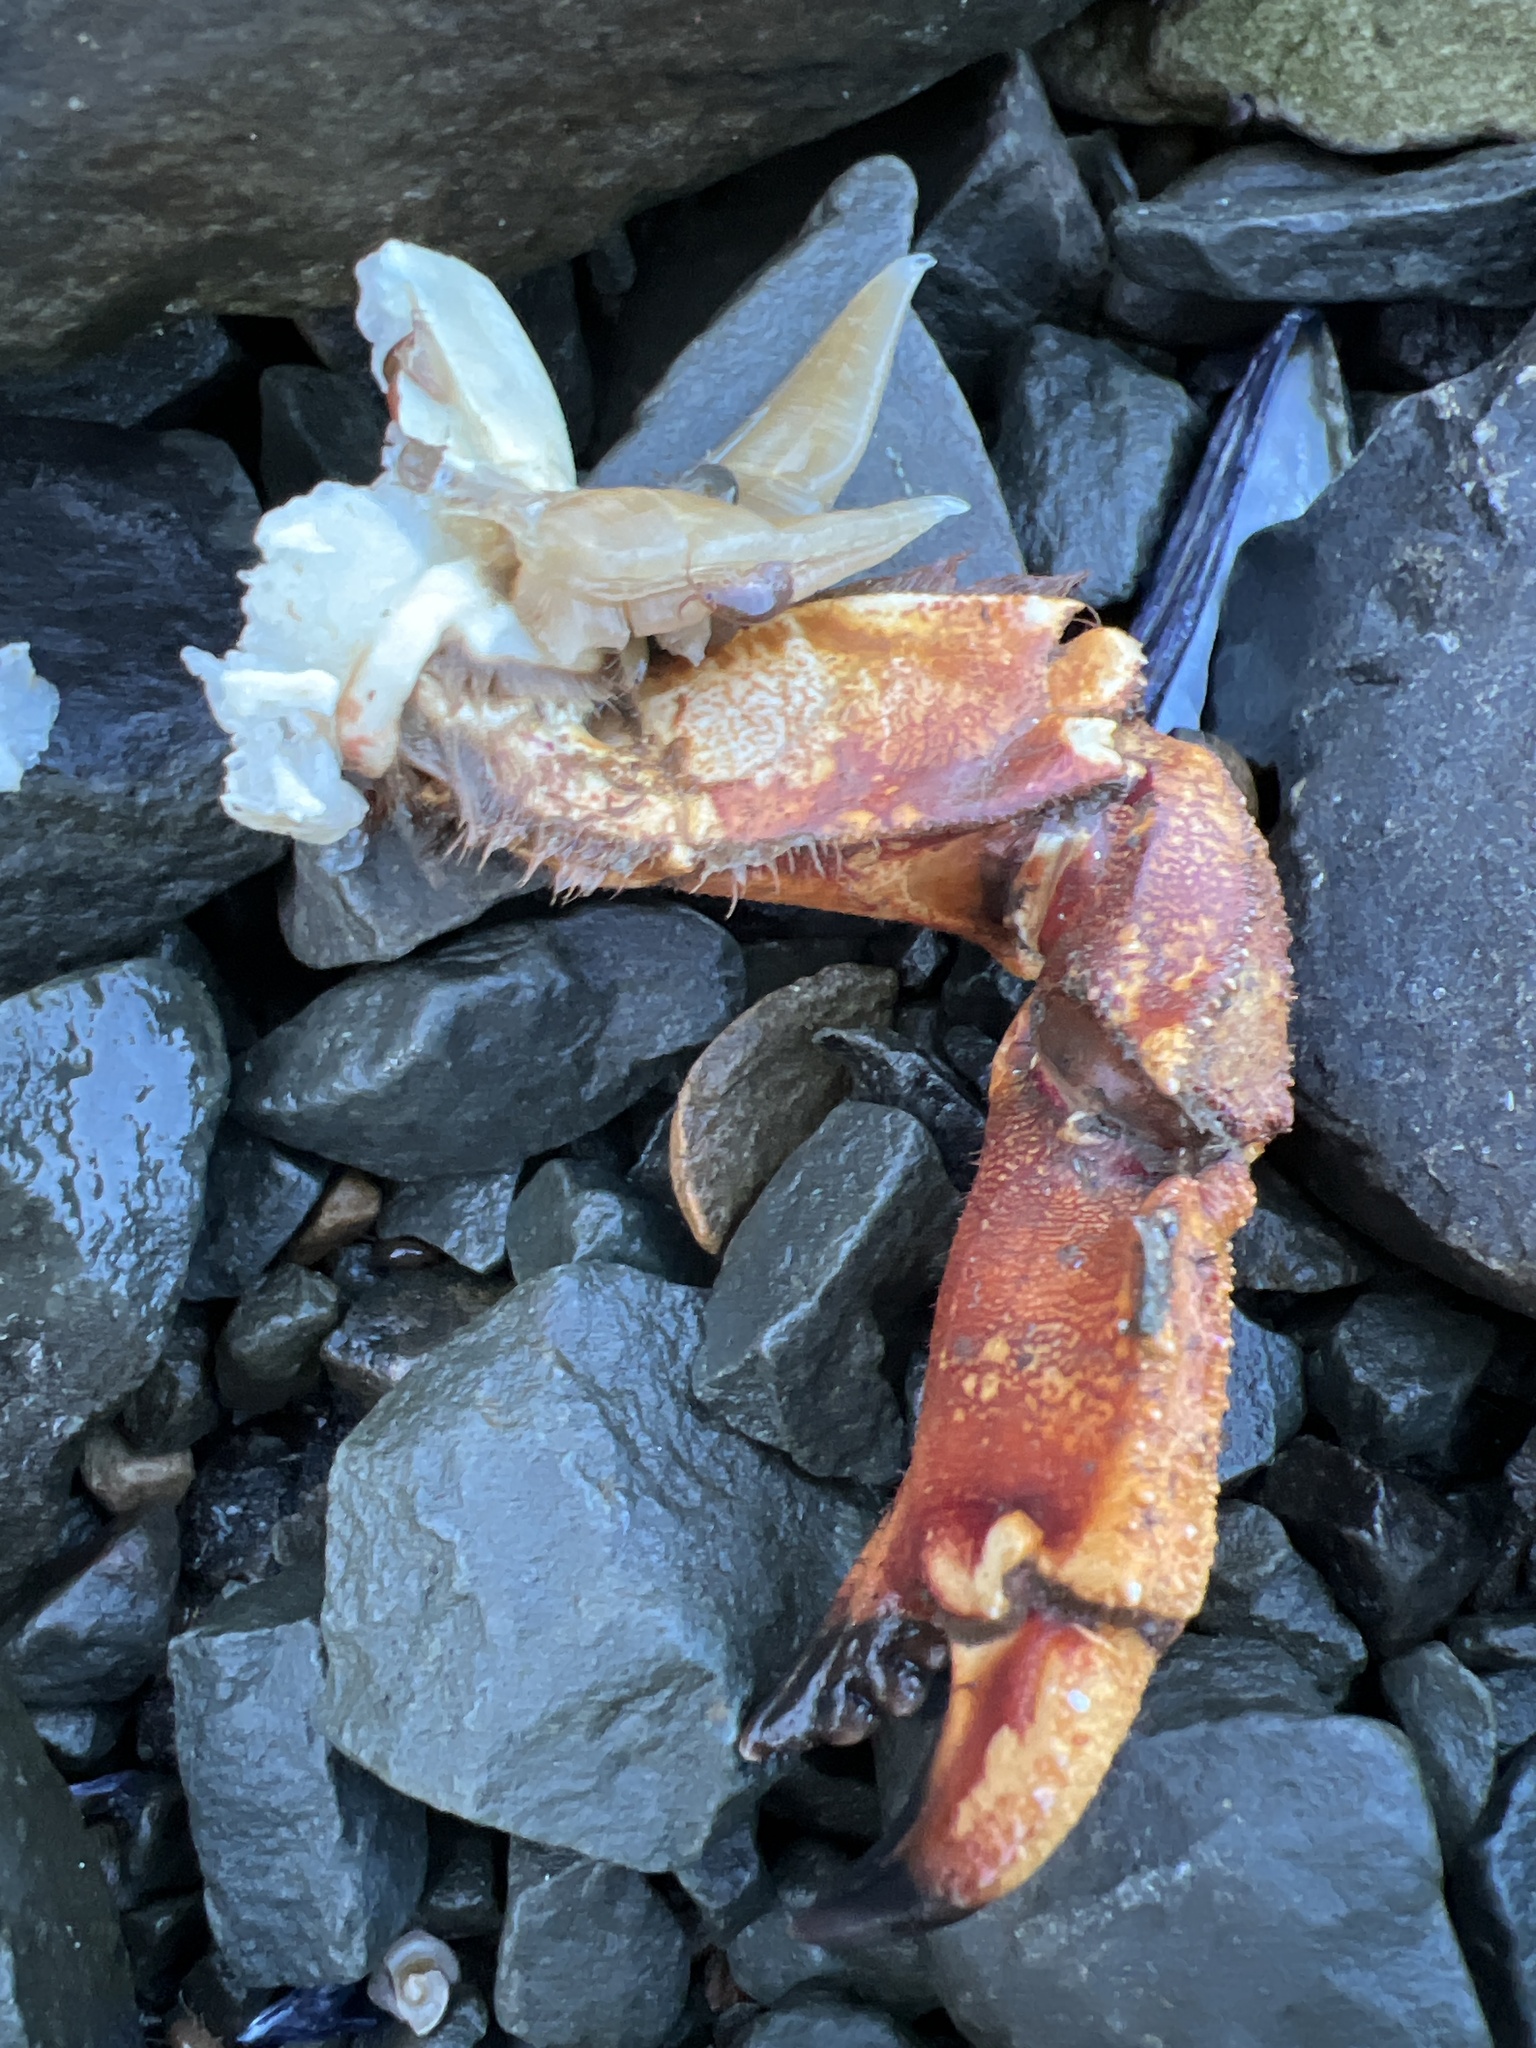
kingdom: Animalia
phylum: Arthropoda
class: Malacostraca
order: Decapoda
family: Cancridae
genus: Cancer
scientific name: Cancer borealis
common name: Jonah crab
